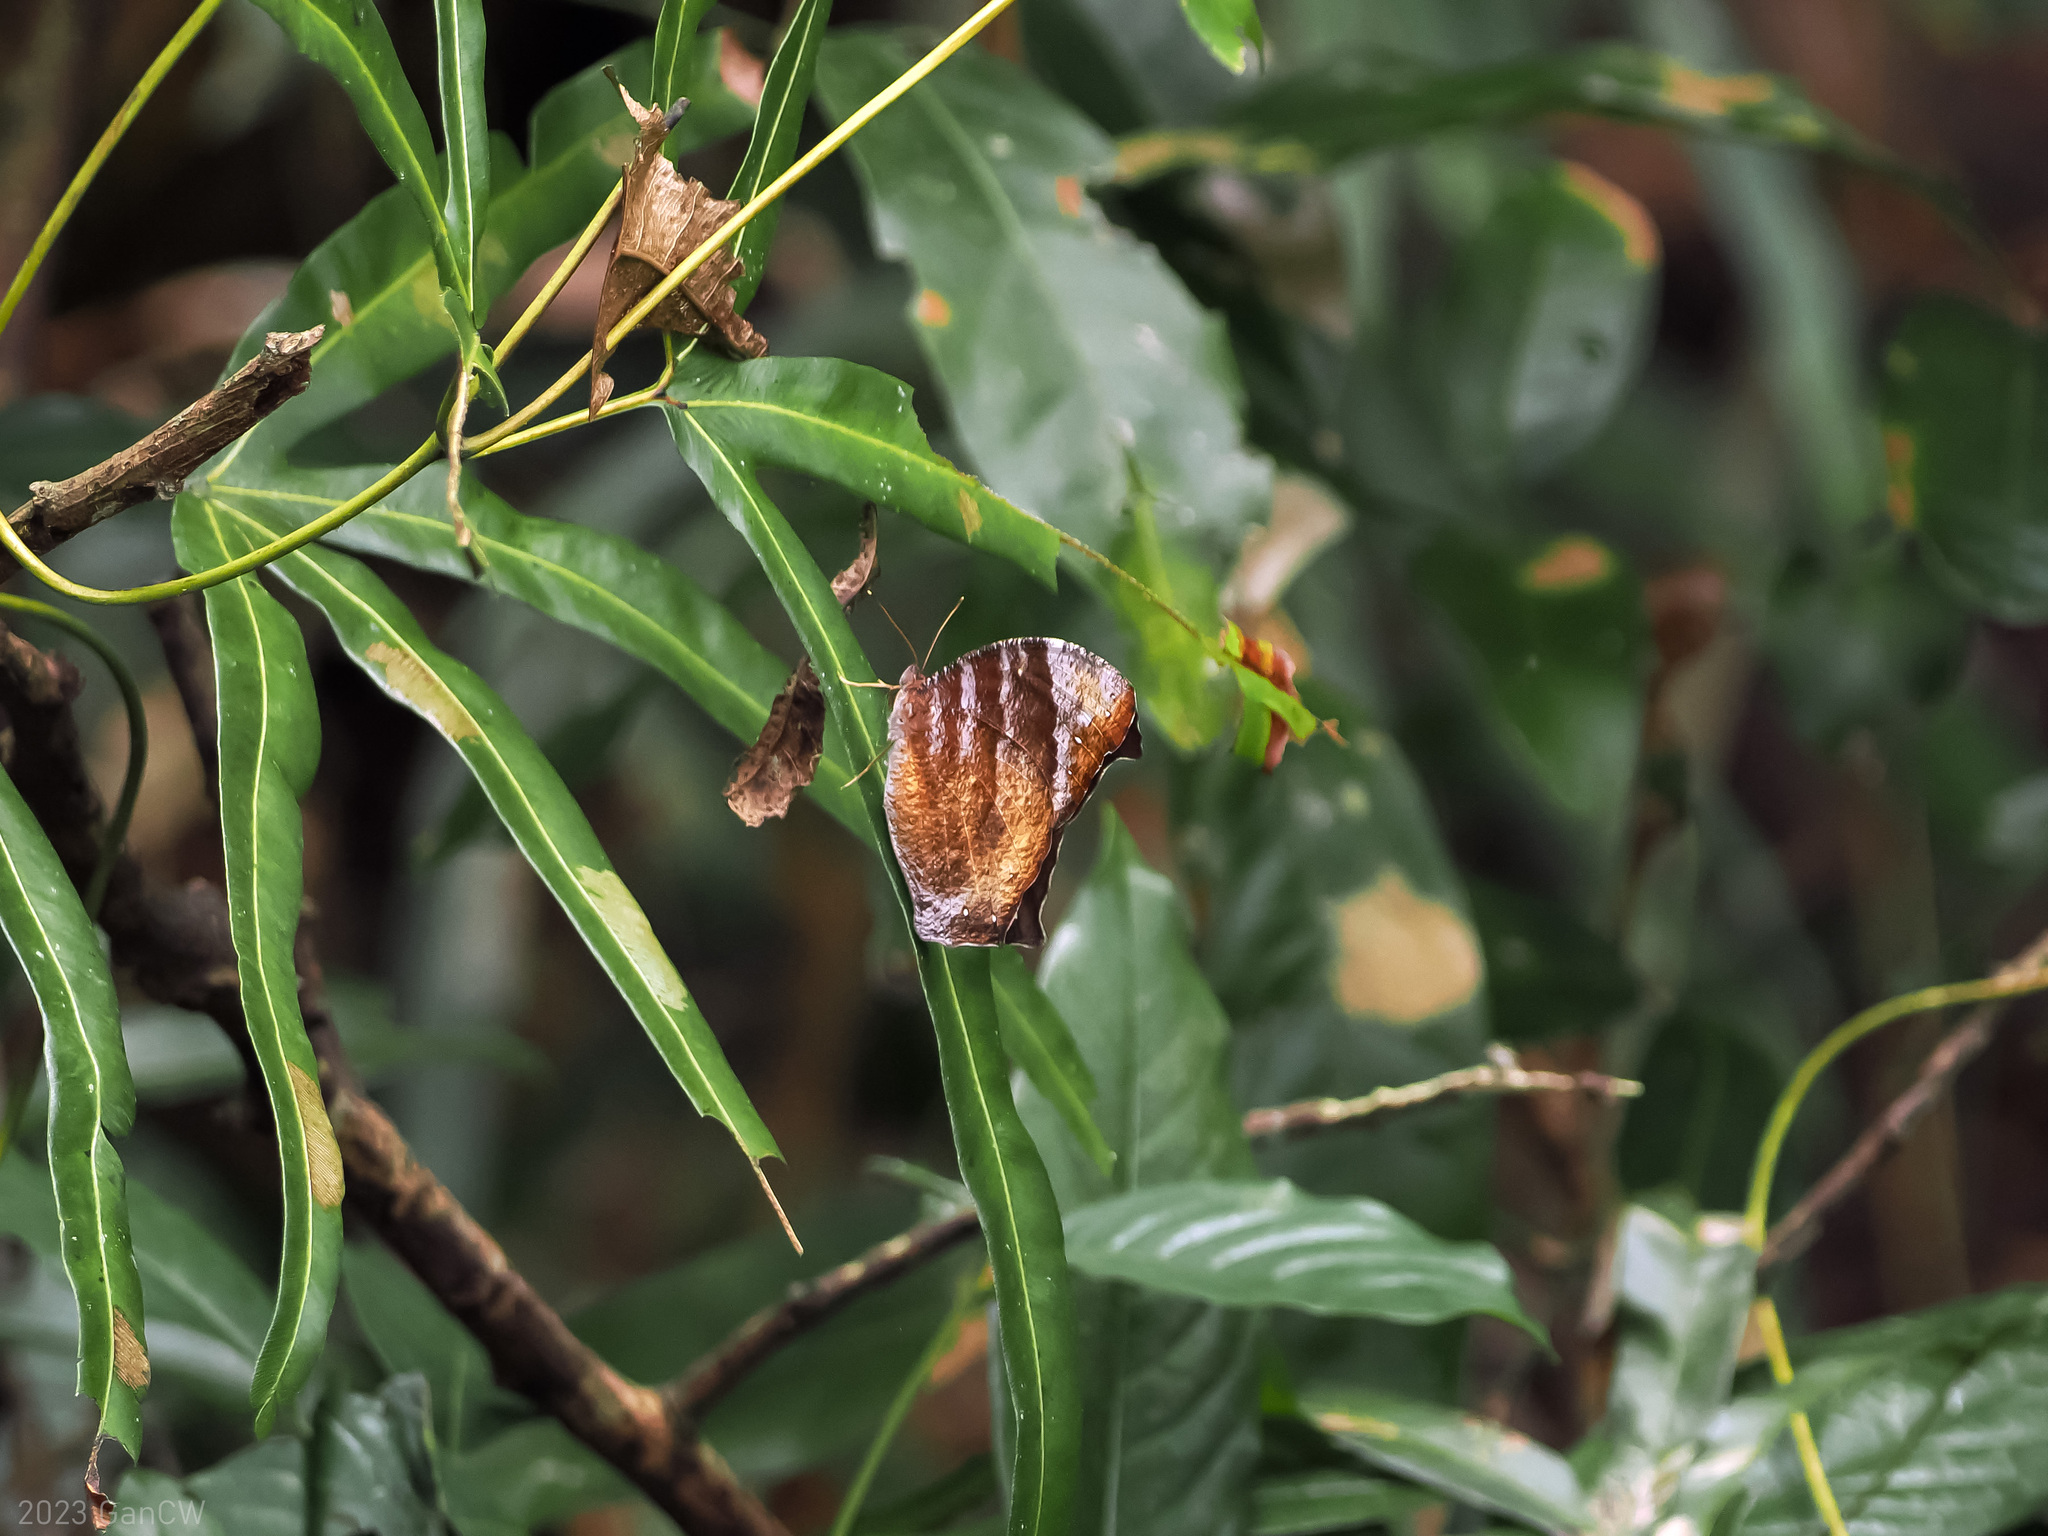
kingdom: Animalia
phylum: Arthropoda
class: Insecta
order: Lepidoptera
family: Nymphalidae
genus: Melanitis
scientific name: Melanitis velutina
